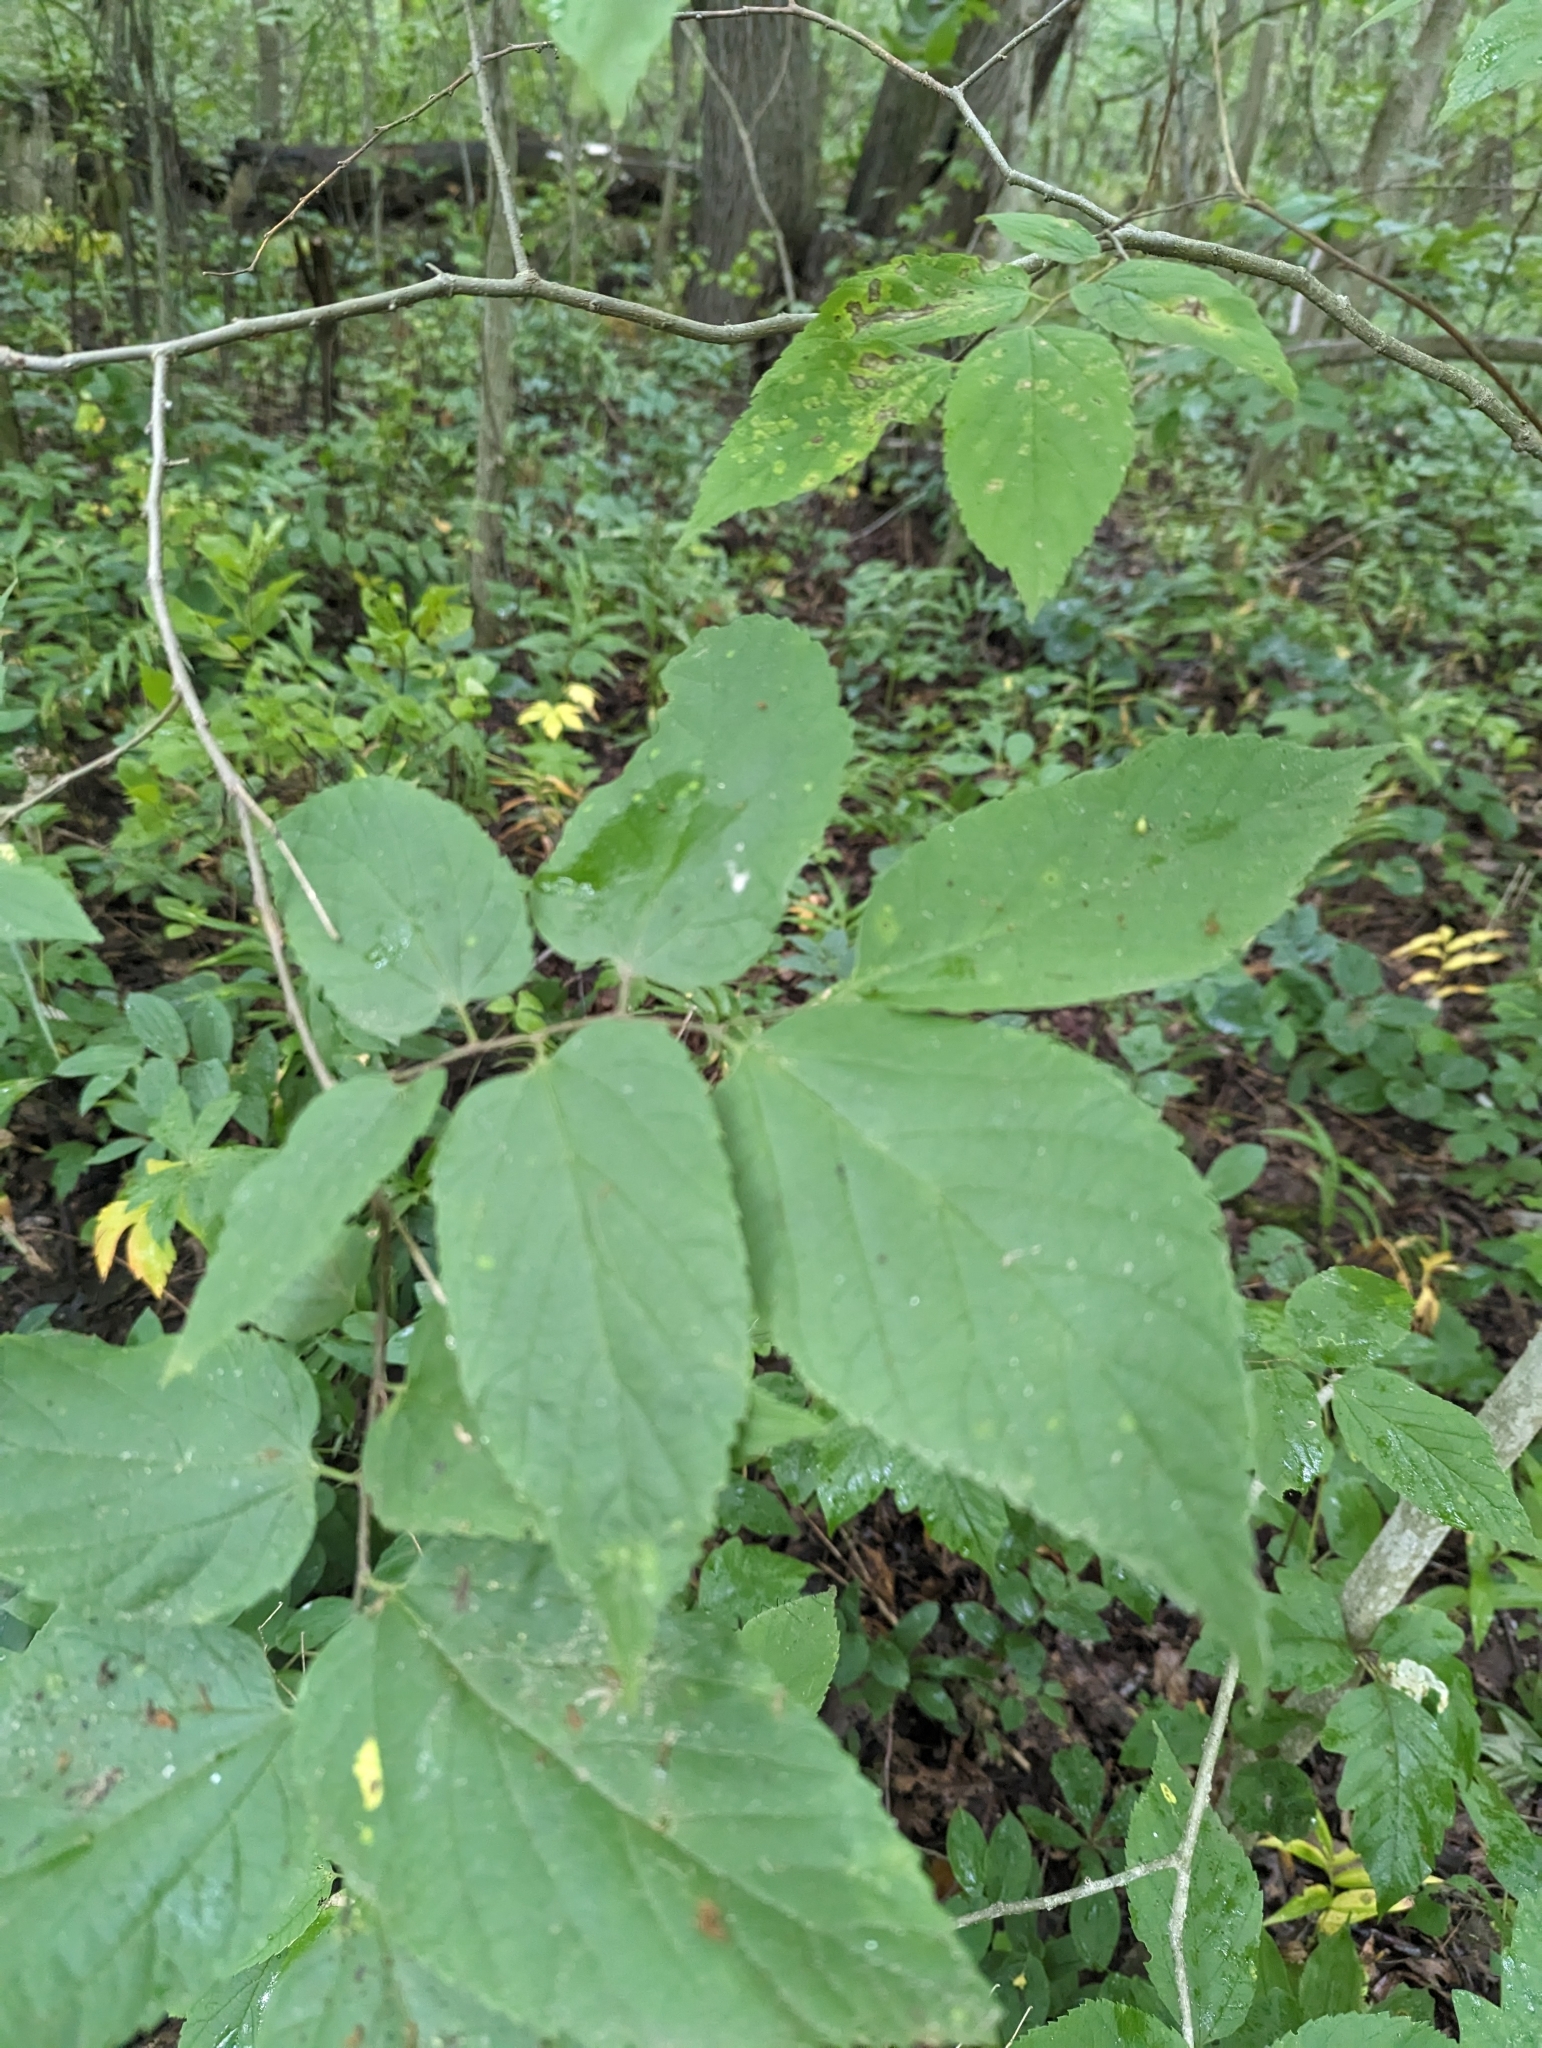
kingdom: Plantae
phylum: Tracheophyta
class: Magnoliopsida
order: Rosales
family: Cannabaceae
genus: Celtis
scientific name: Celtis occidentalis
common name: Common hackberry
